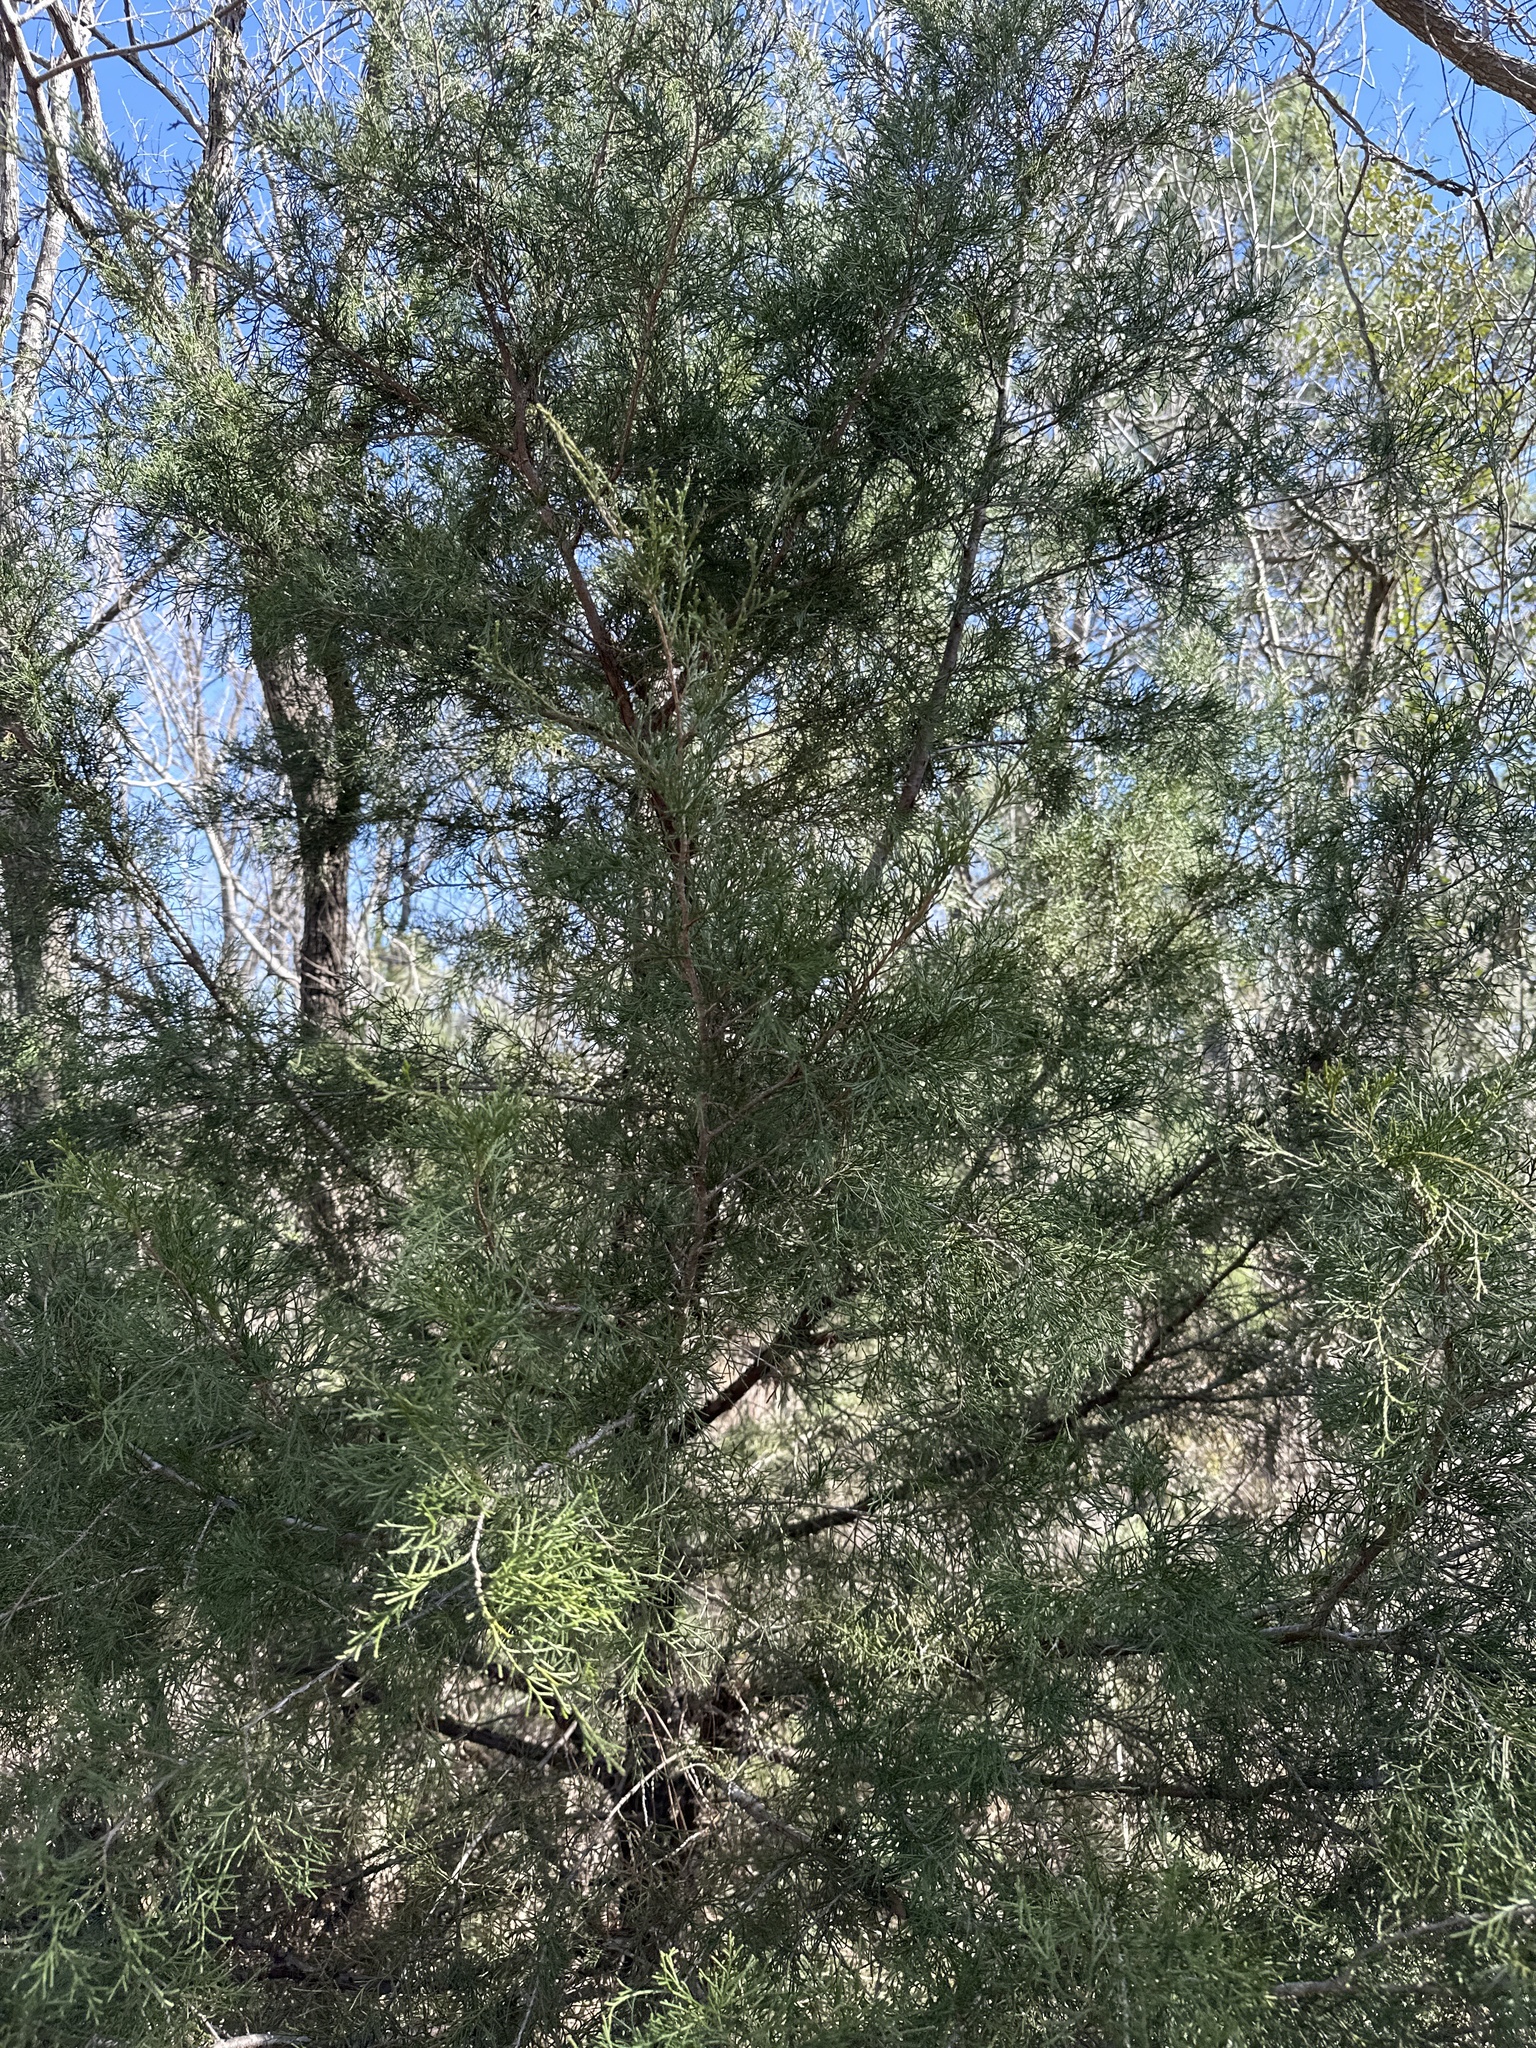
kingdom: Plantae
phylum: Tracheophyta
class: Pinopsida
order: Pinales
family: Cupressaceae
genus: Juniperus
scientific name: Juniperus virginiana
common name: Red juniper
